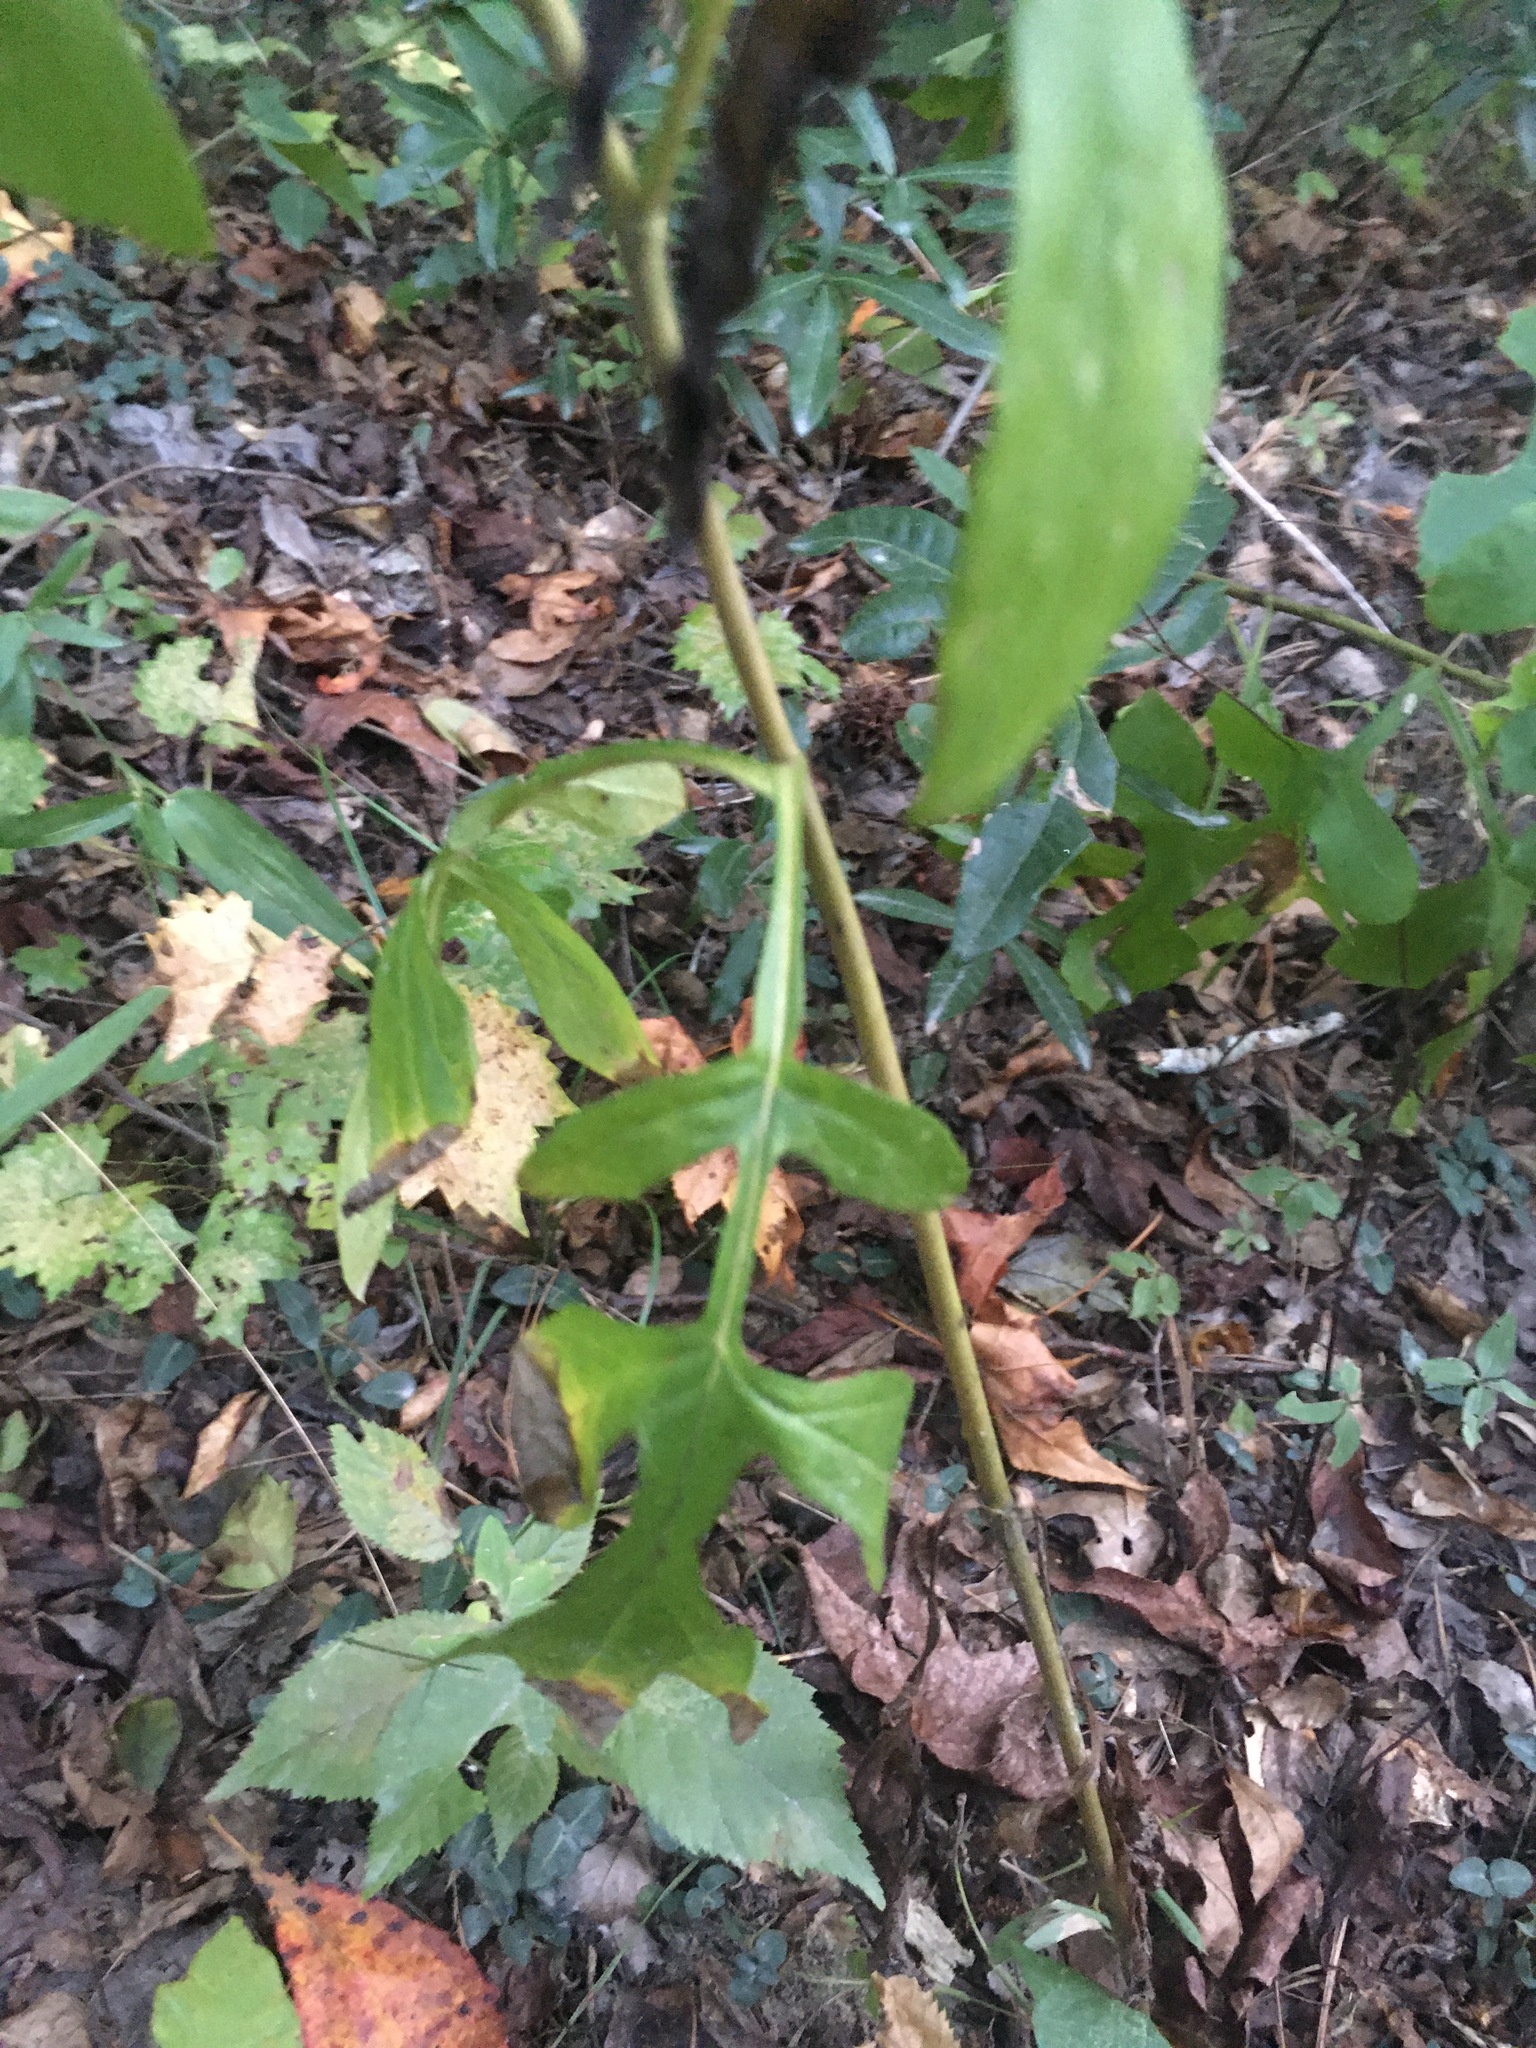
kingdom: Plantae
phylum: Tracheophyta
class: Magnoliopsida
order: Asterales
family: Asteraceae
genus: Nabalus
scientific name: Nabalus serpentarius
